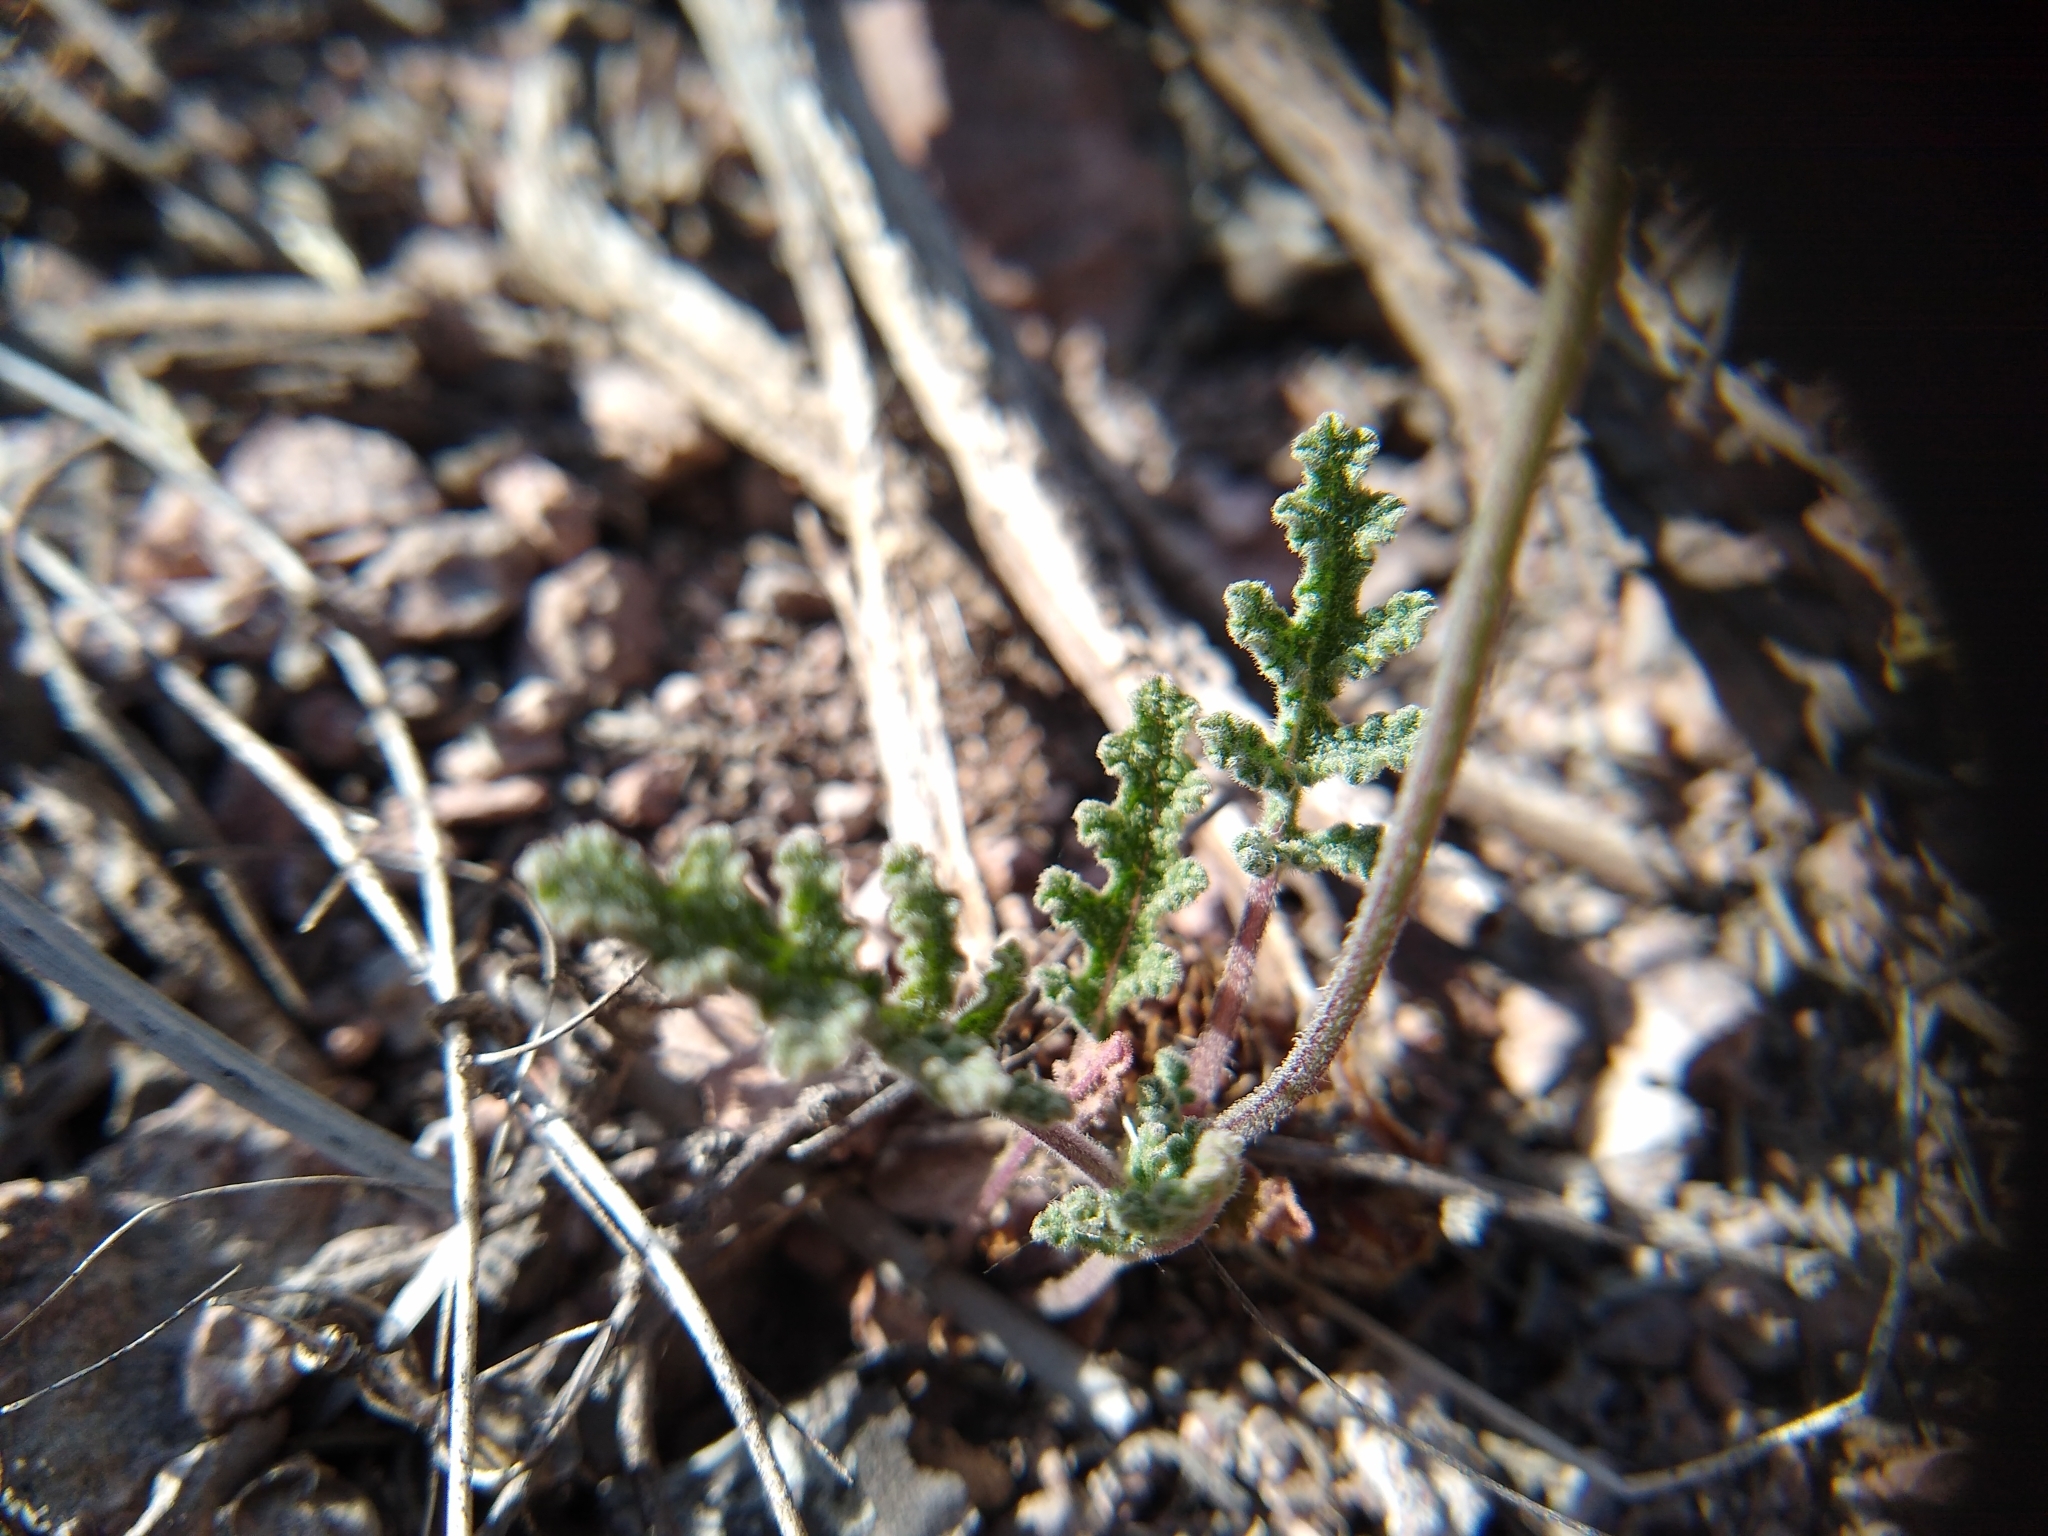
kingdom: Plantae
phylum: Tracheophyta
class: Magnoliopsida
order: Lamiales
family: Lamiaceae
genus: Salvia
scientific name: Salvia columbariae
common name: Chia
